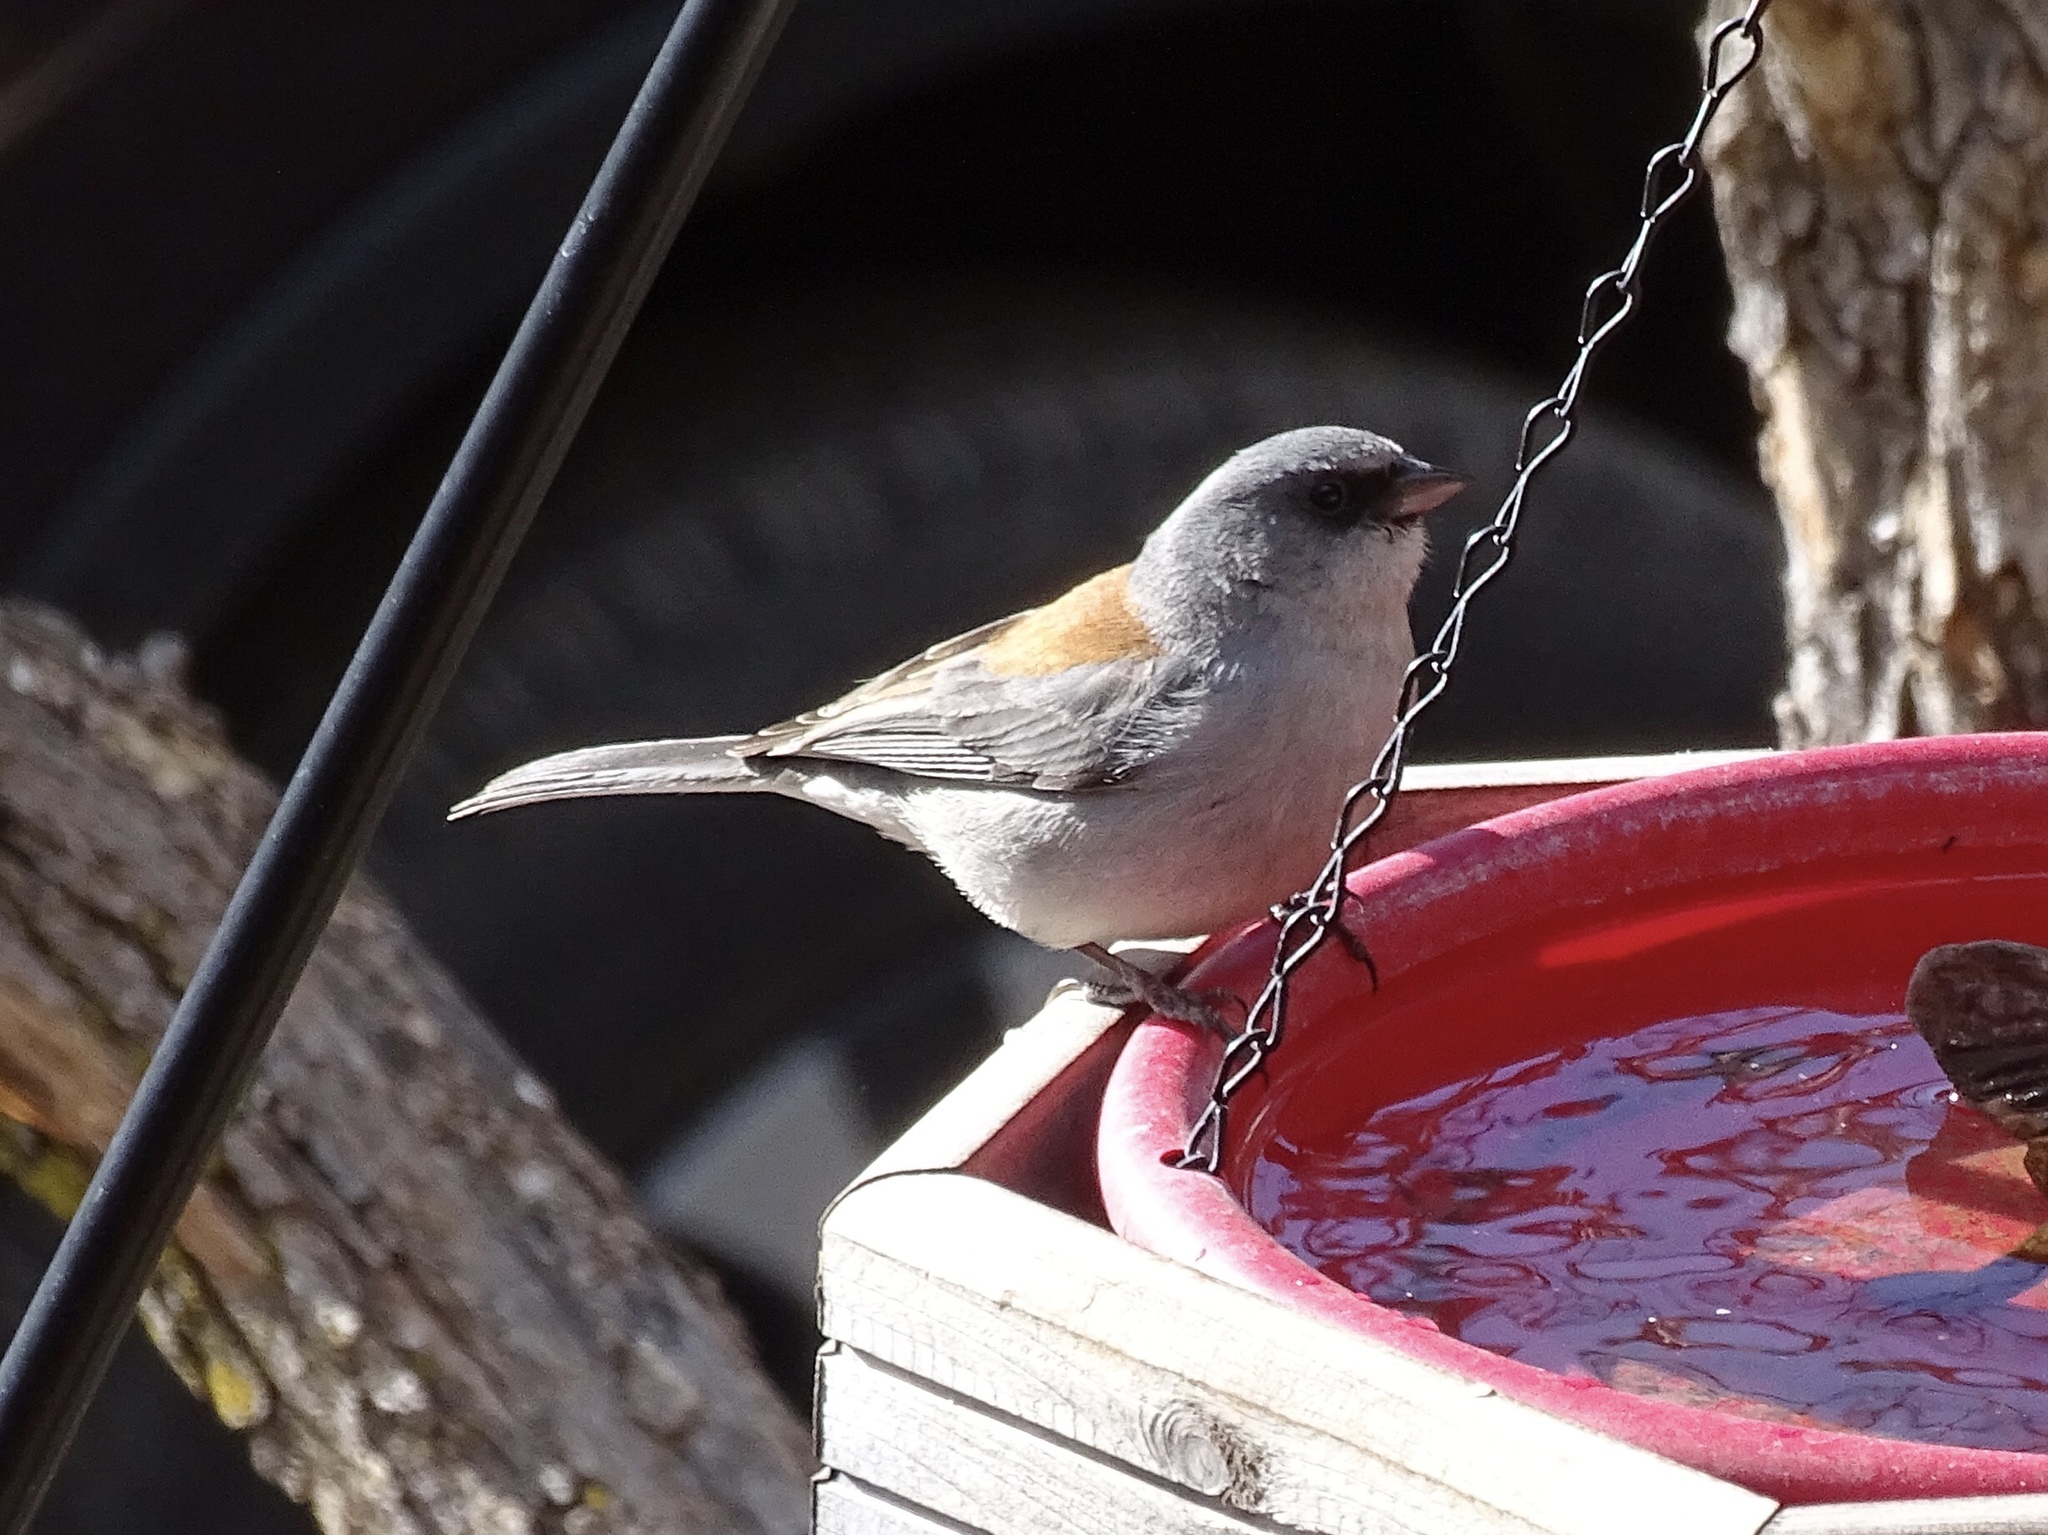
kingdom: Animalia
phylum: Chordata
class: Aves
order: Passeriformes
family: Passerellidae
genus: Junco
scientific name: Junco hyemalis
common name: Dark-eyed junco
